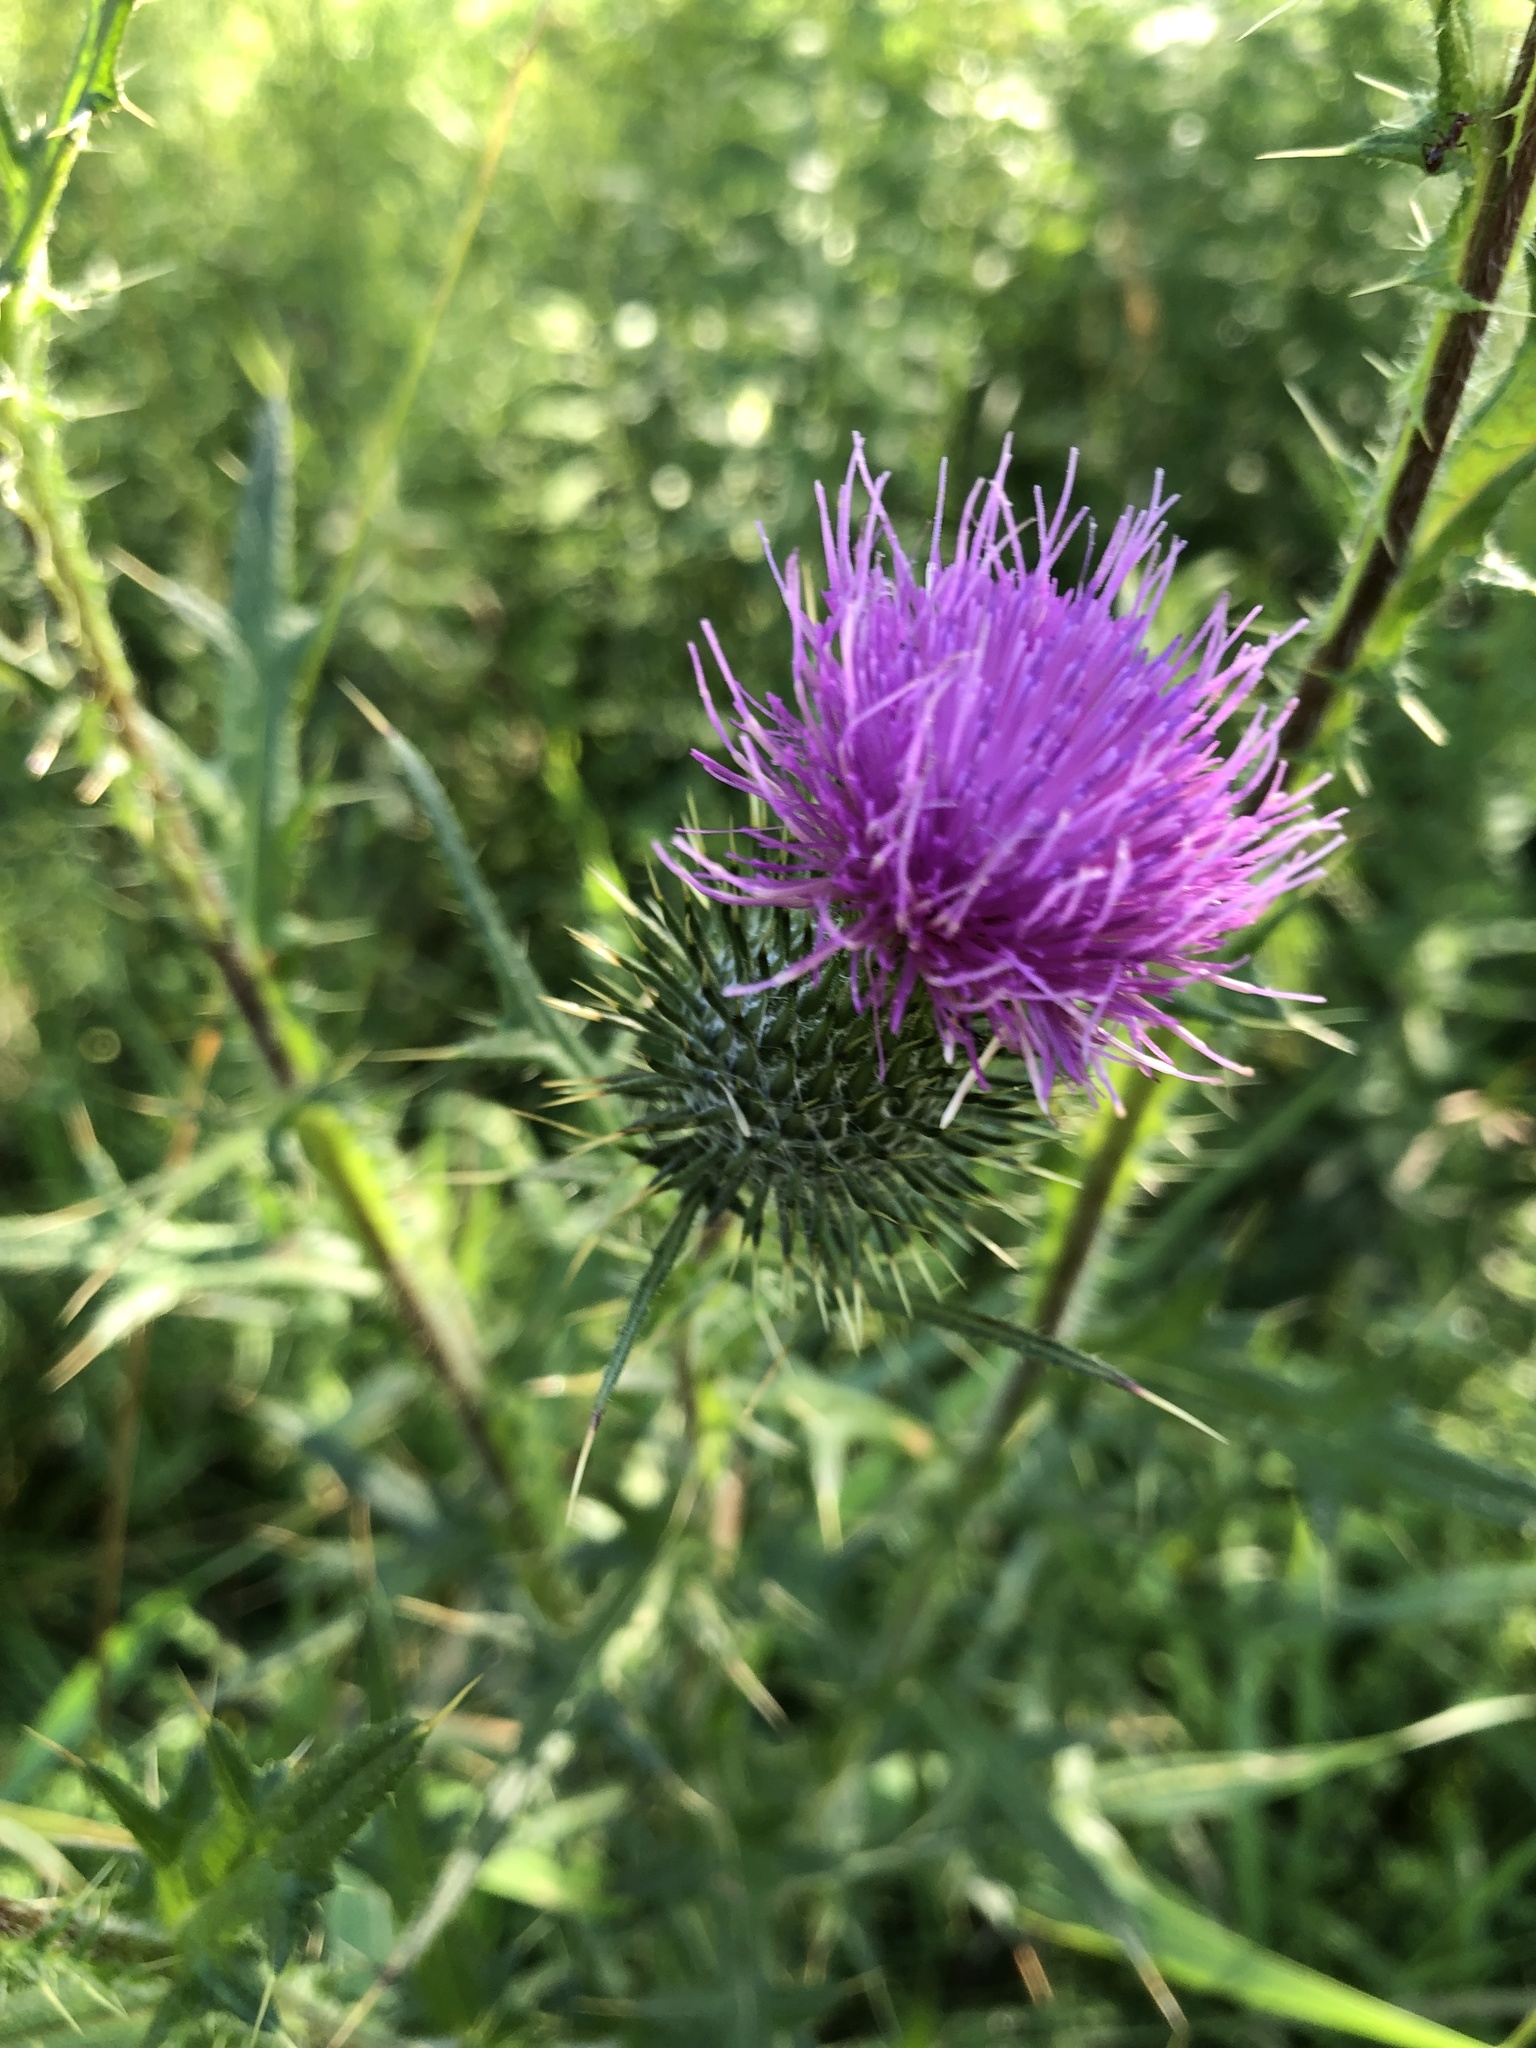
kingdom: Plantae
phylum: Tracheophyta
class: Magnoliopsida
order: Asterales
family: Asteraceae
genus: Cirsium
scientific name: Cirsium vulgare
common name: Bull thistle
